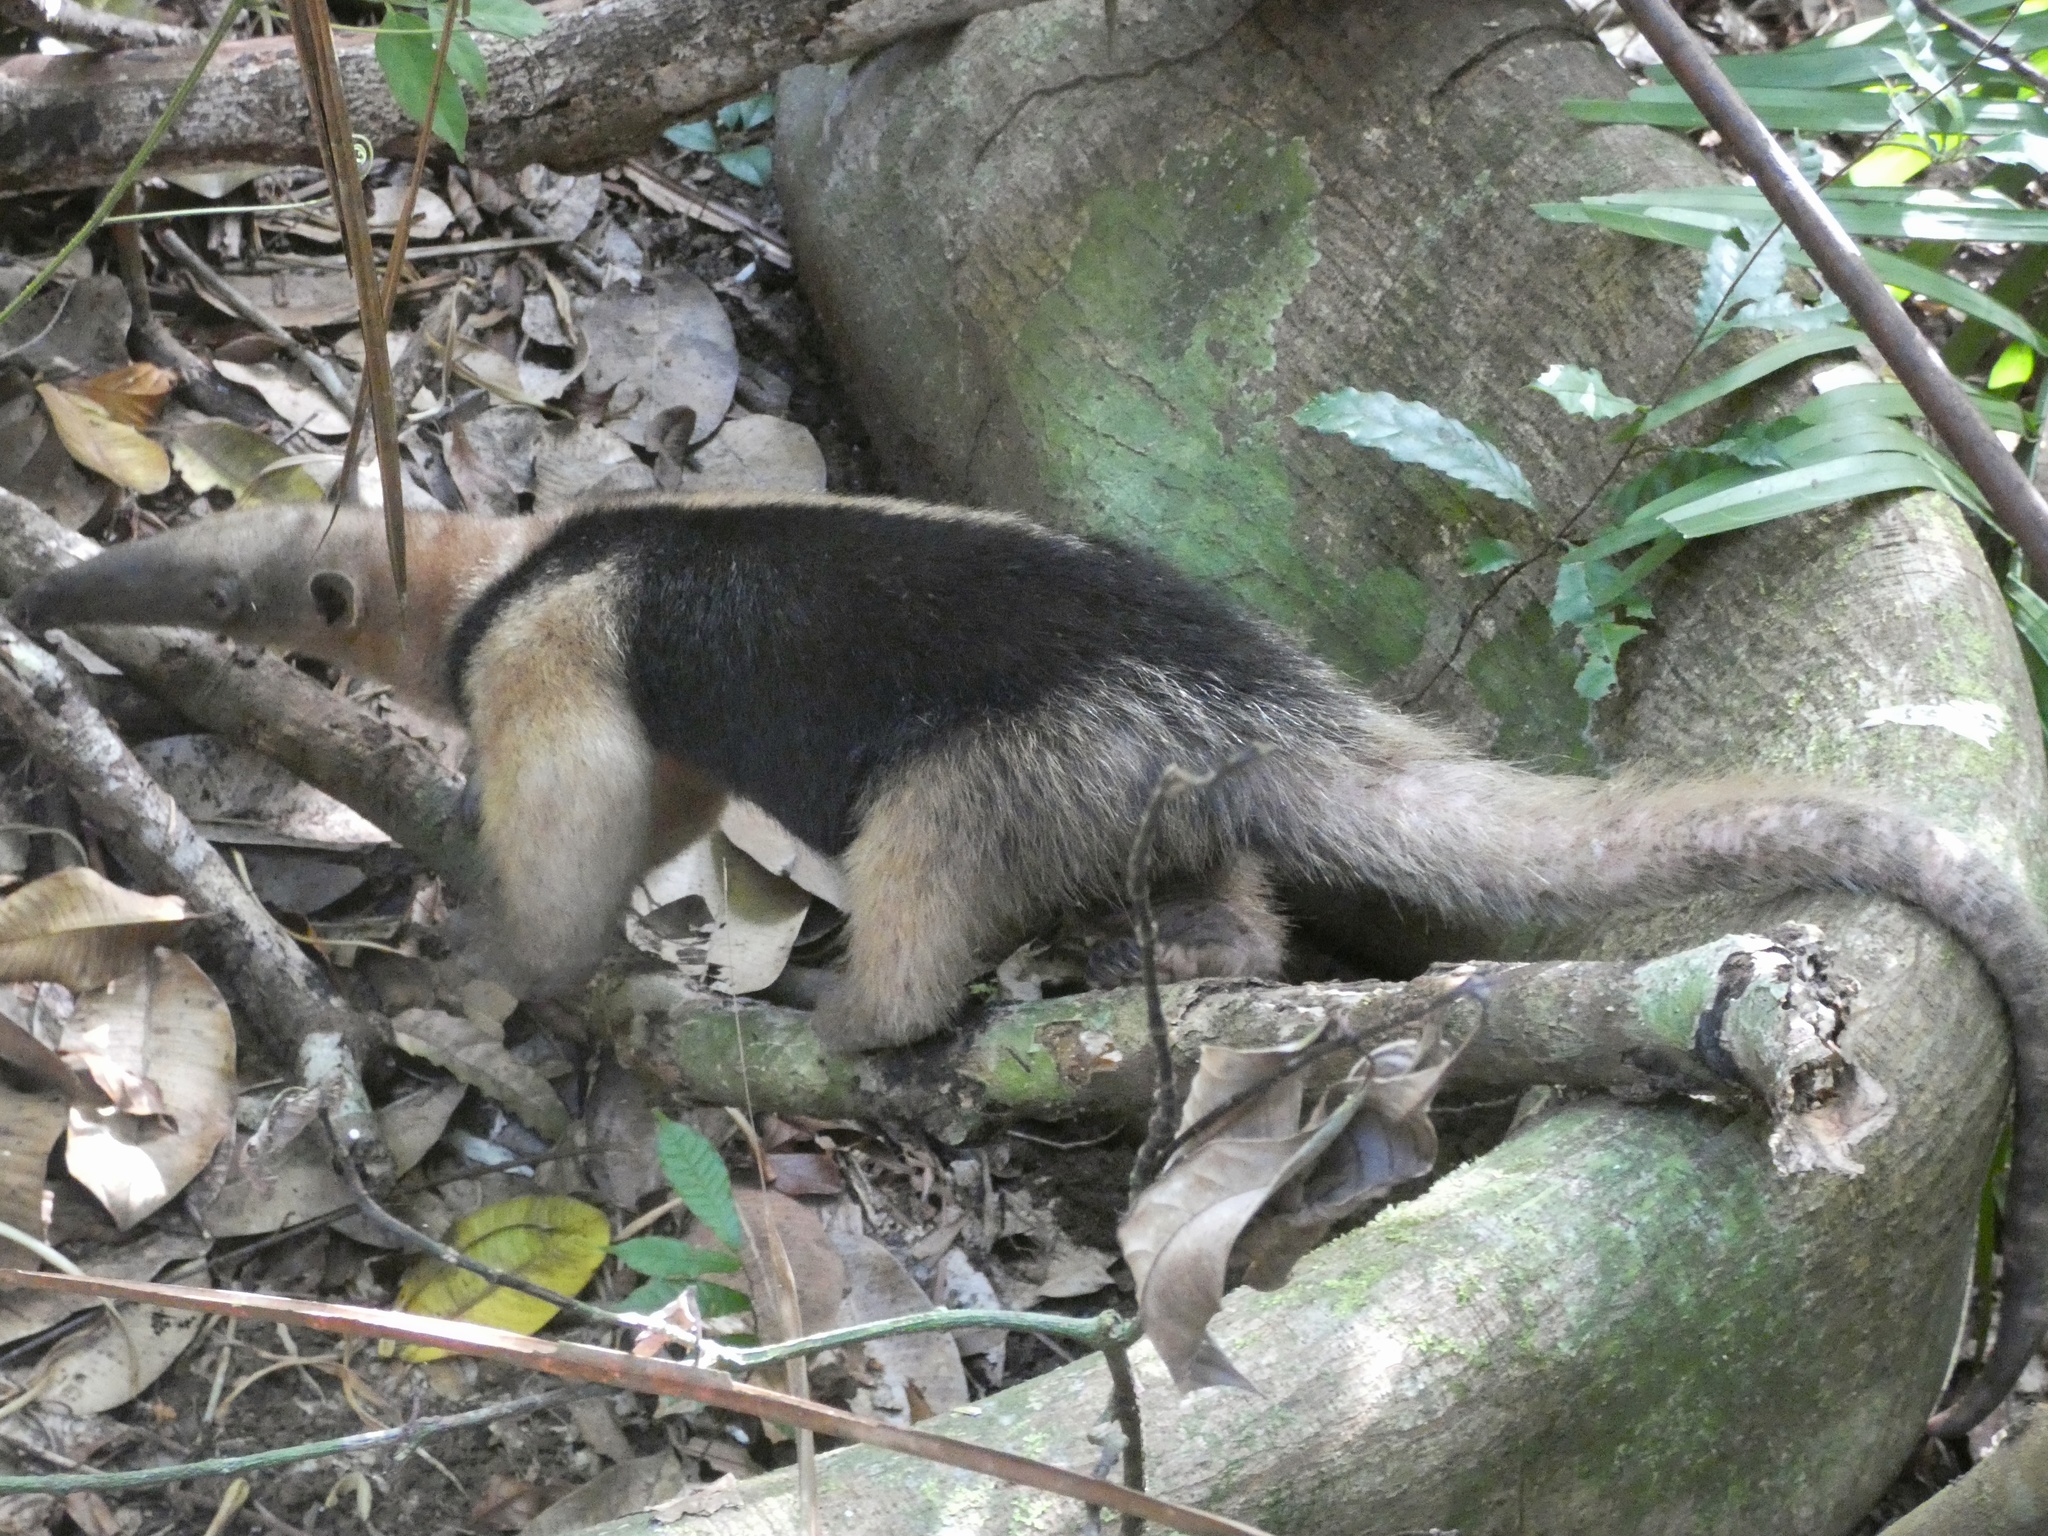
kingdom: Animalia
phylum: Chordata
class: Mammalia
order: Pilosa
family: Myrmecophagidae
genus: Tamandua
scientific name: Tamandua mexicana
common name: Northern tamandua
